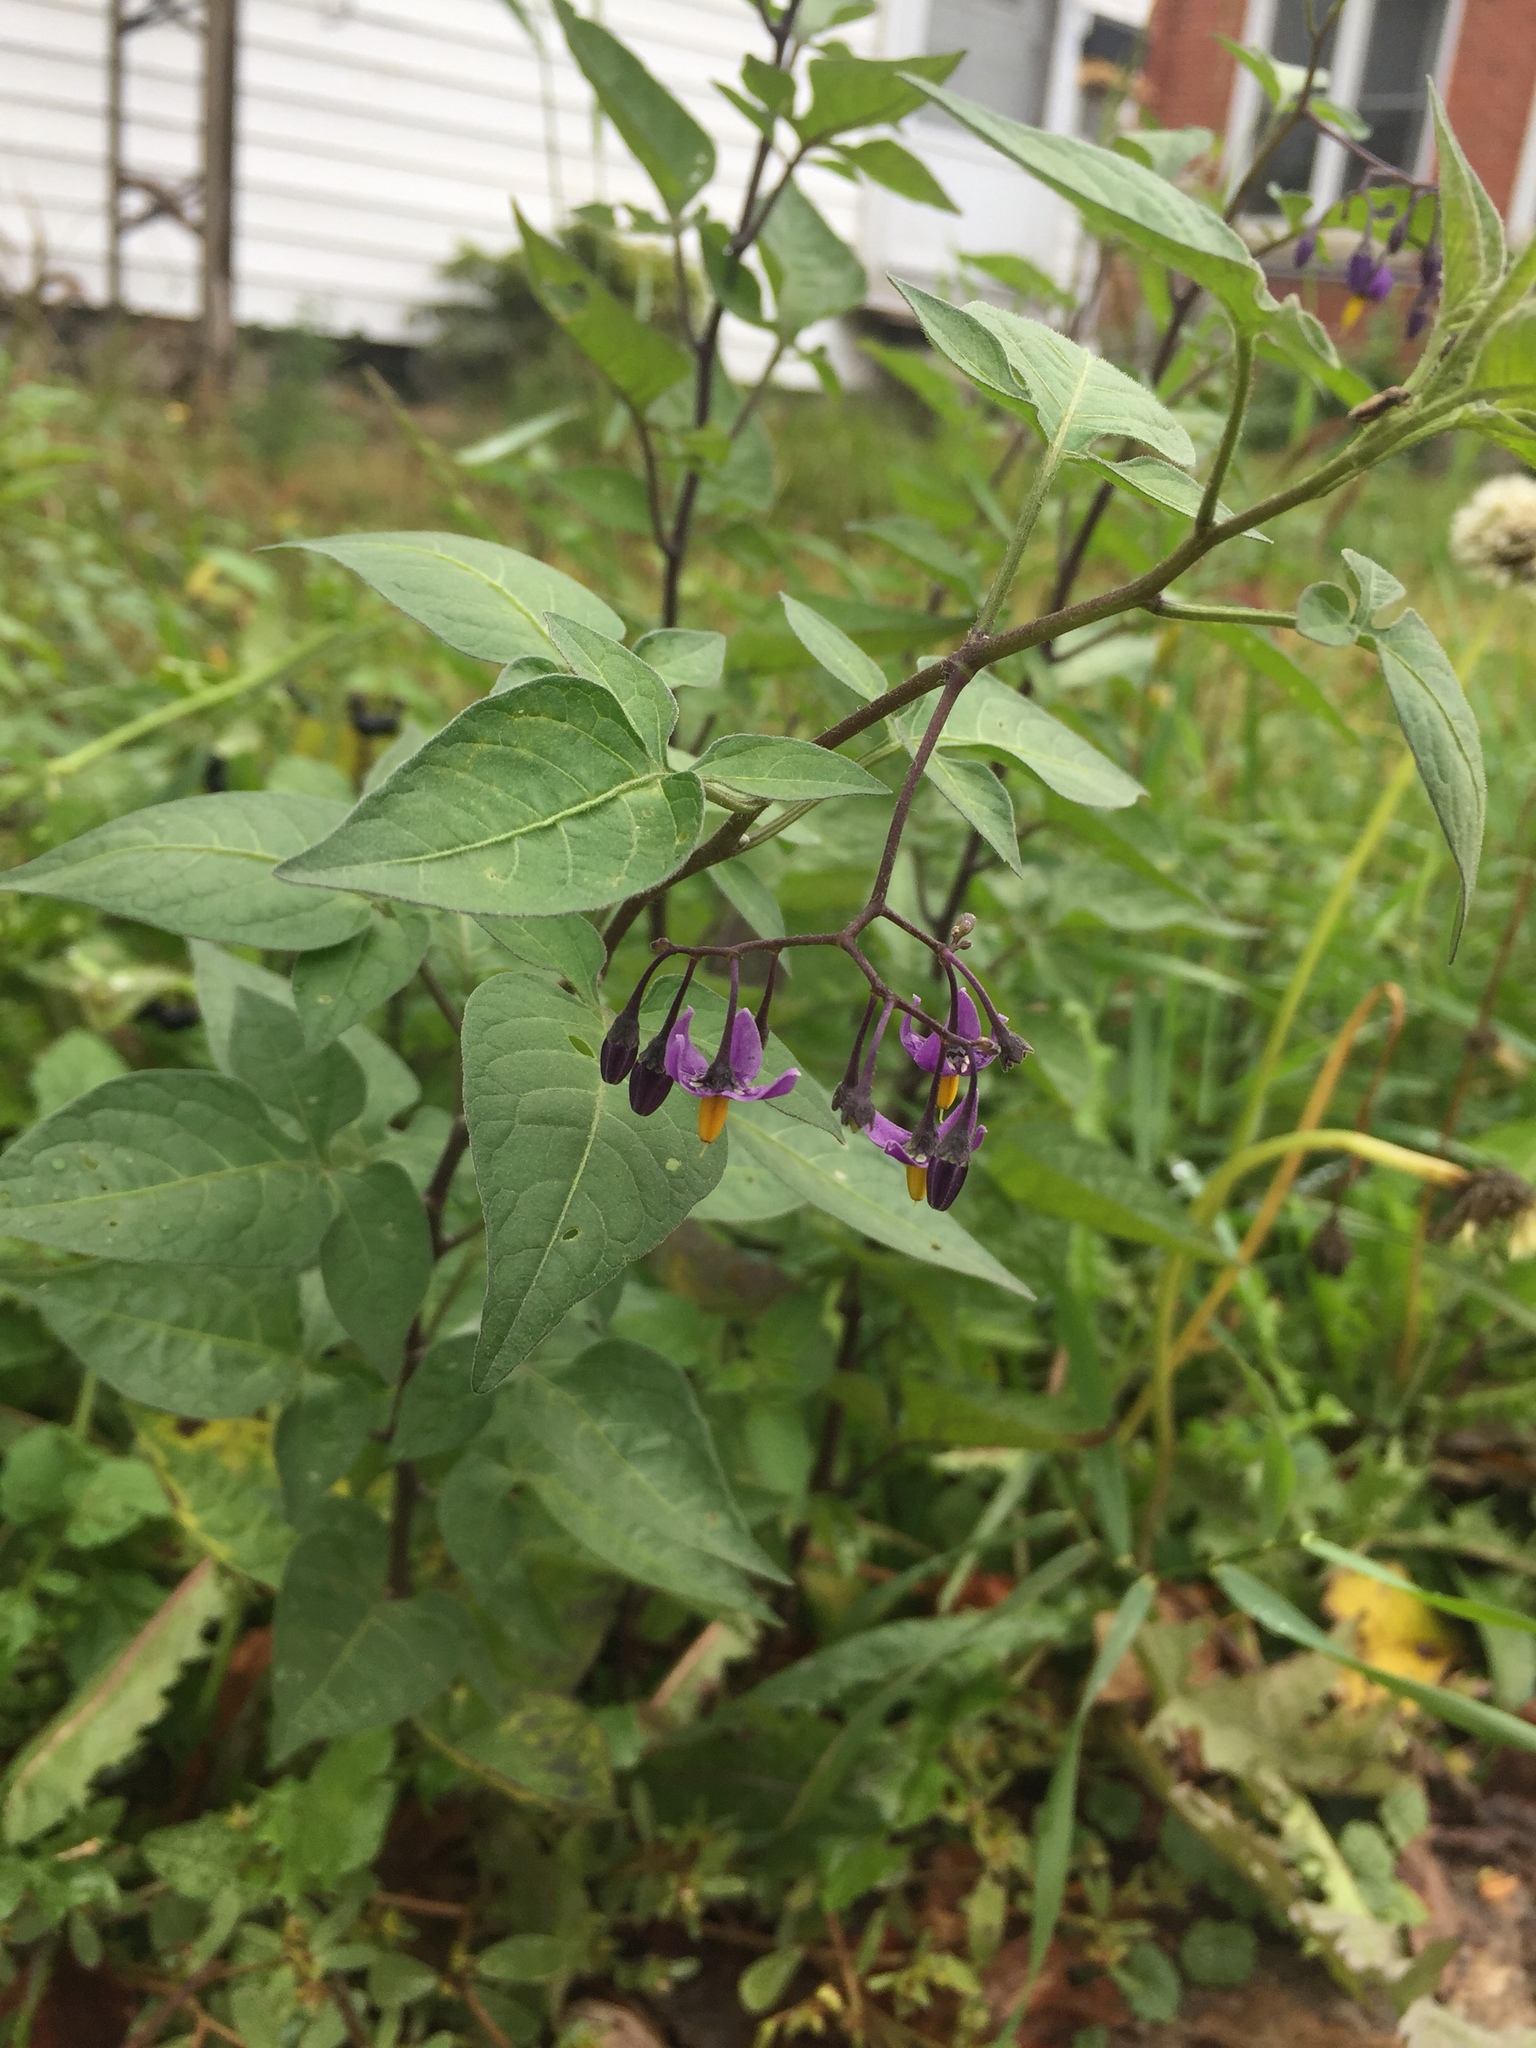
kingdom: Plantae
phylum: Tracheophyta
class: Magnoliopsida
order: Solanales
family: Solanaceae
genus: Solanum
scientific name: Solanum dulcamara
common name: Climbing nightshade
